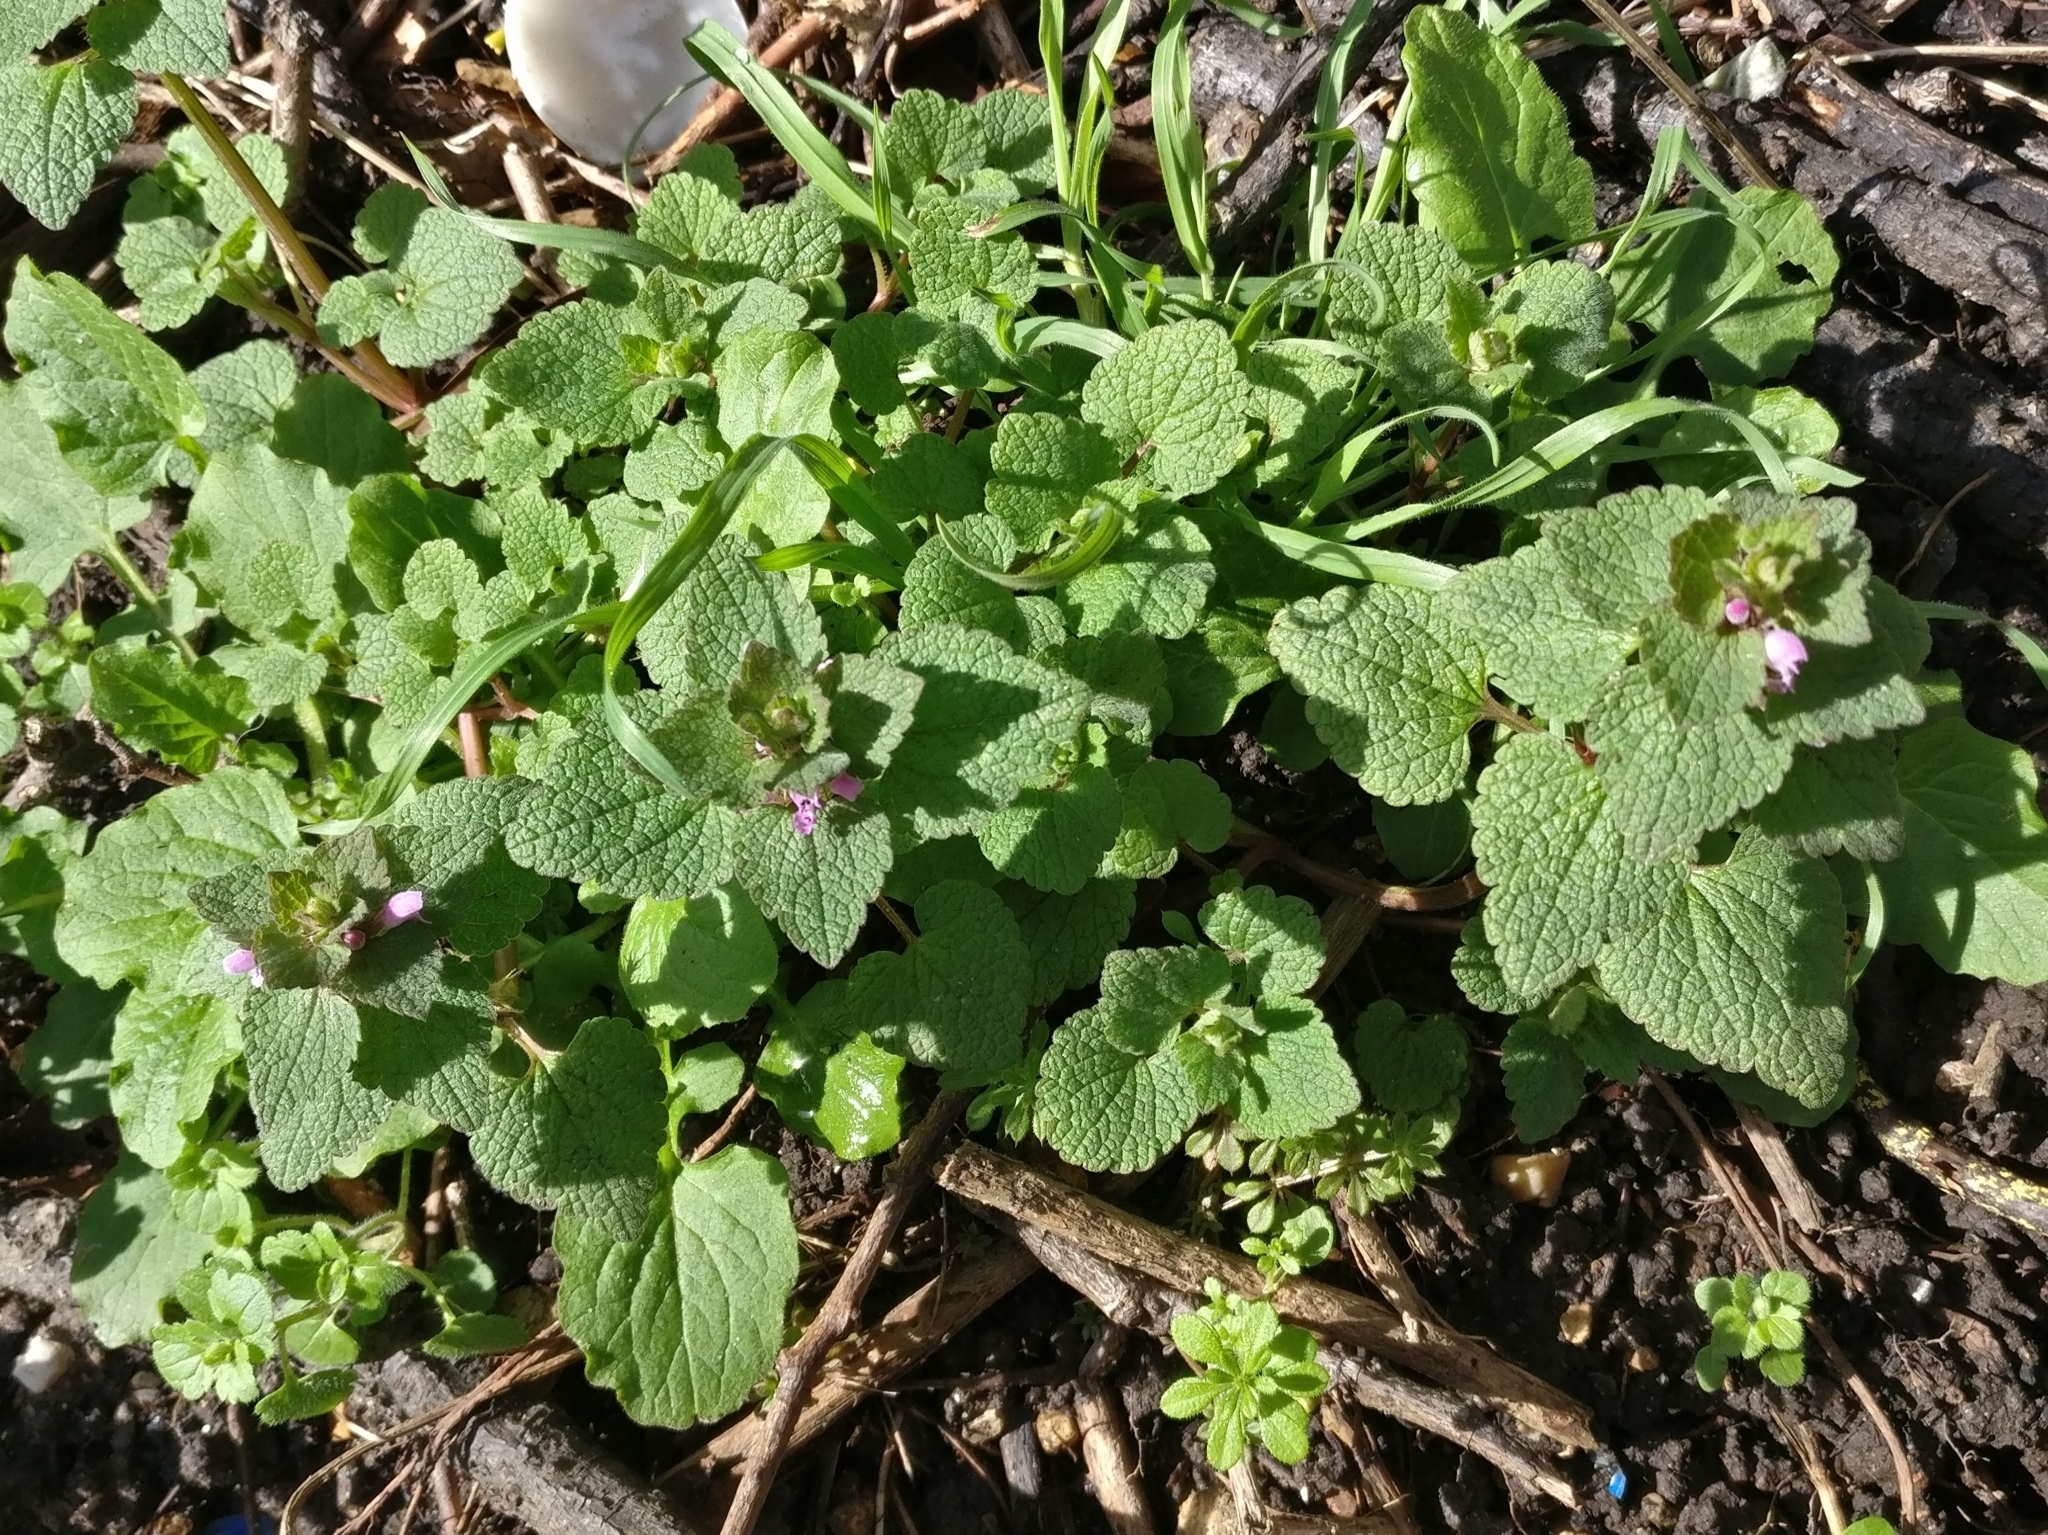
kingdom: Plantae
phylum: Tracheophyta
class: Magnoliopsida
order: Lamiales
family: Lamiaceae
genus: Lamium
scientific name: Lamium purpureum
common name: Red dead-nettle
